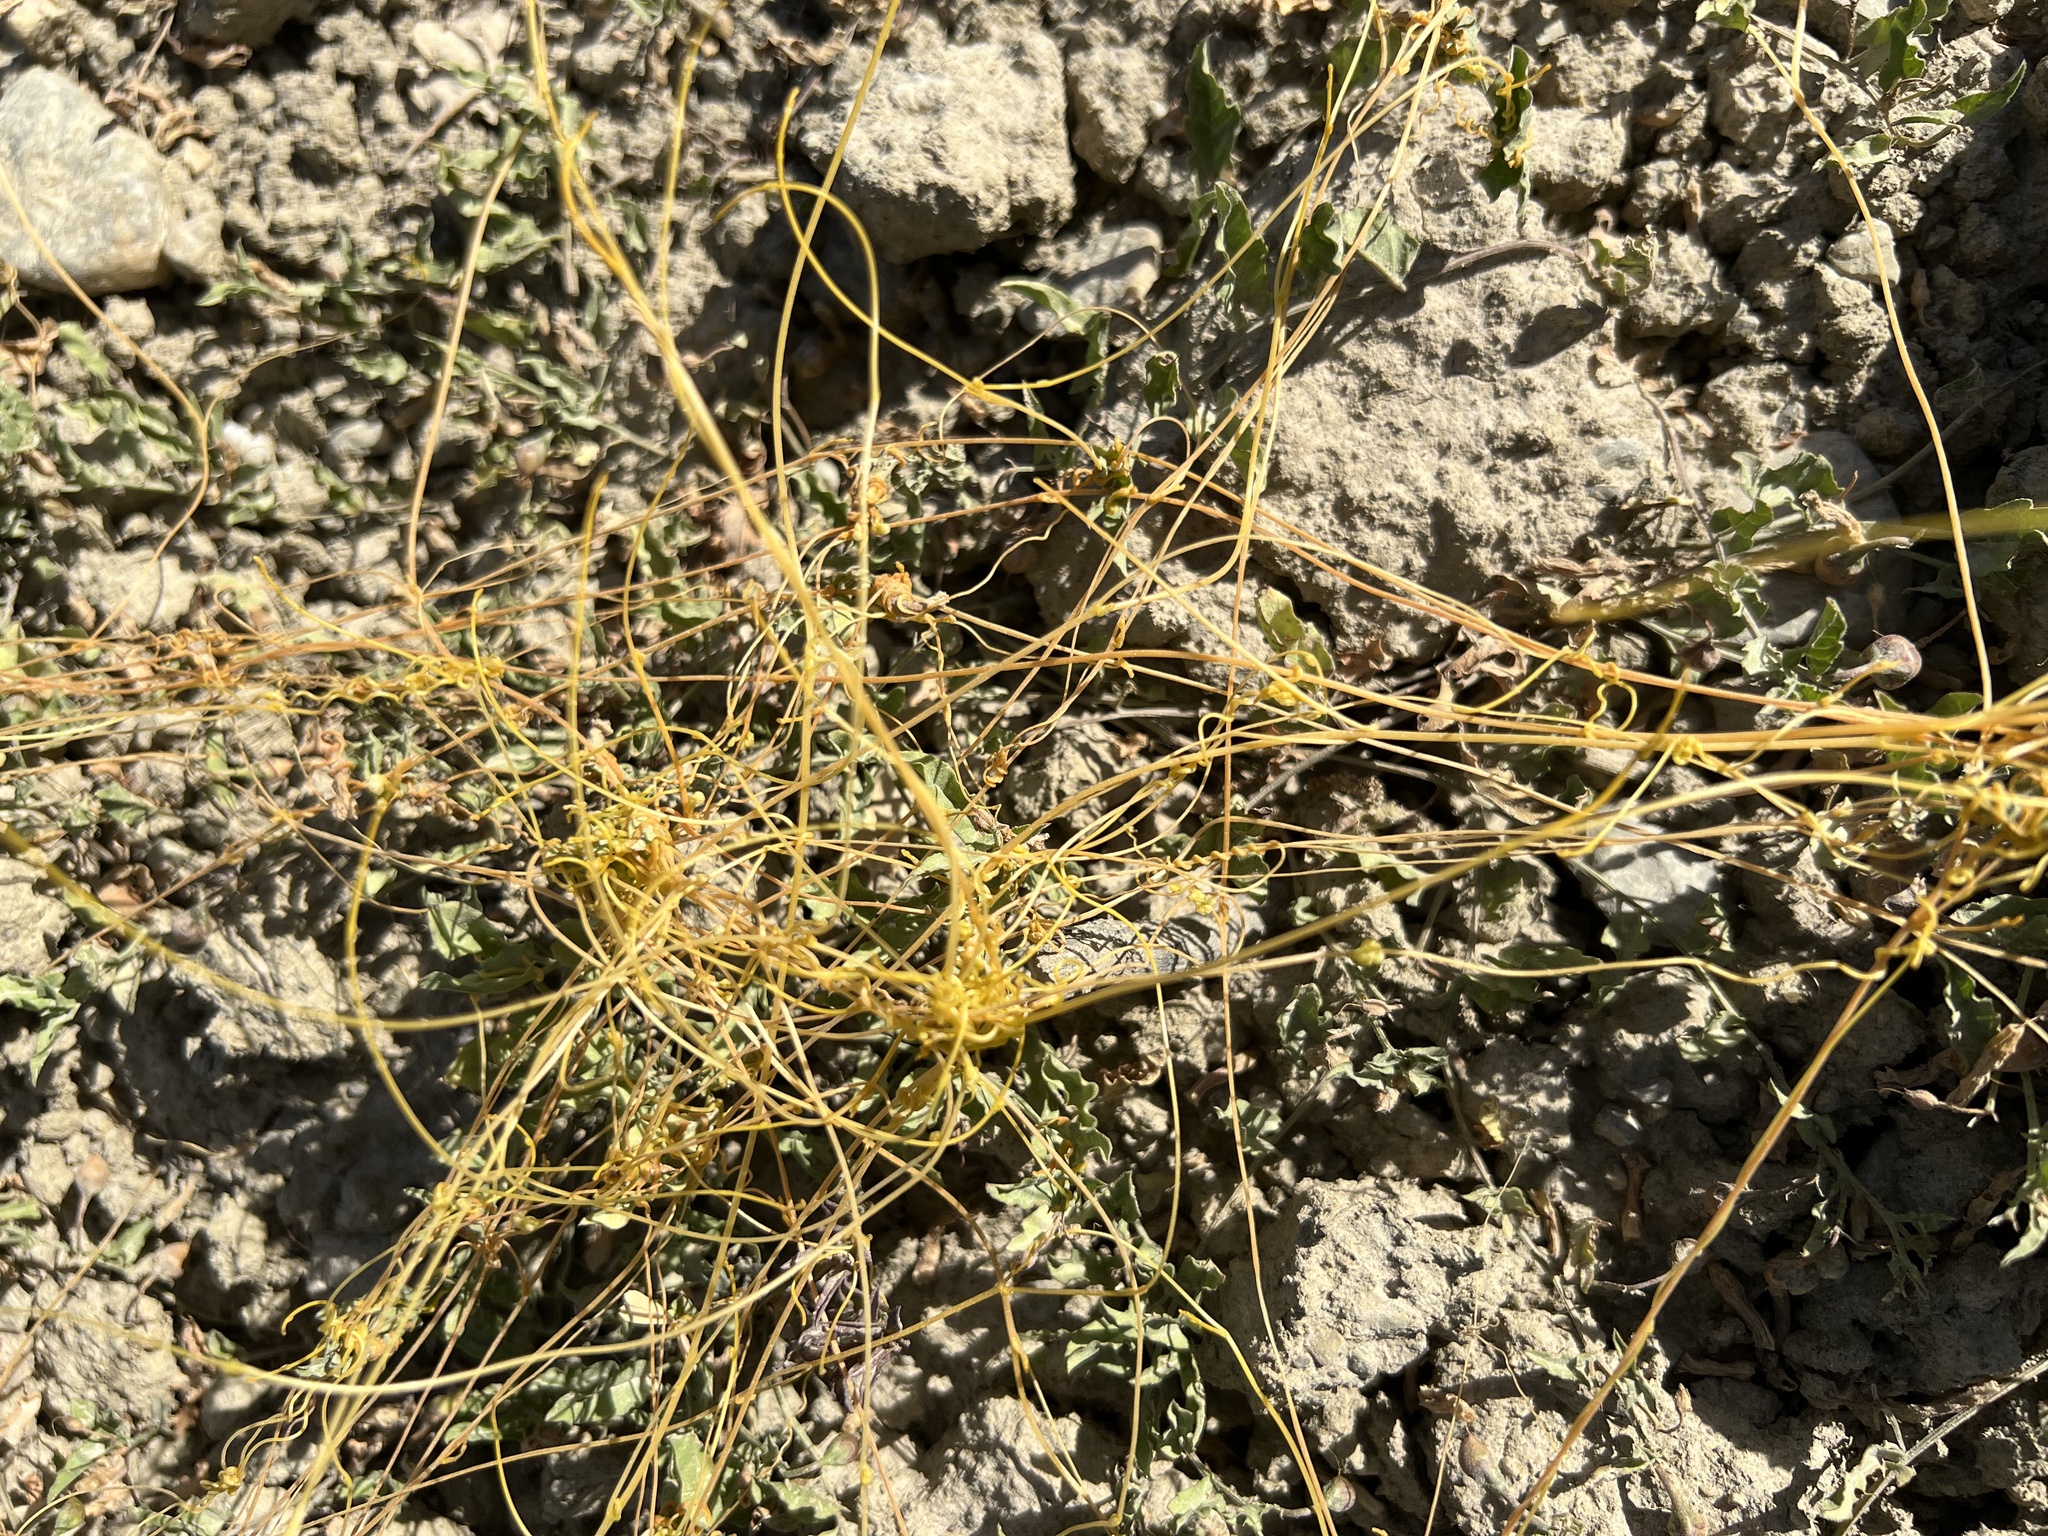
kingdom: Plantae
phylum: Tracheophyta
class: Magnoliopsida
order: Solanales
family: Convolvulaceae
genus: Cuscuta
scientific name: Cuscuta campestris
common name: Yellow dodder
